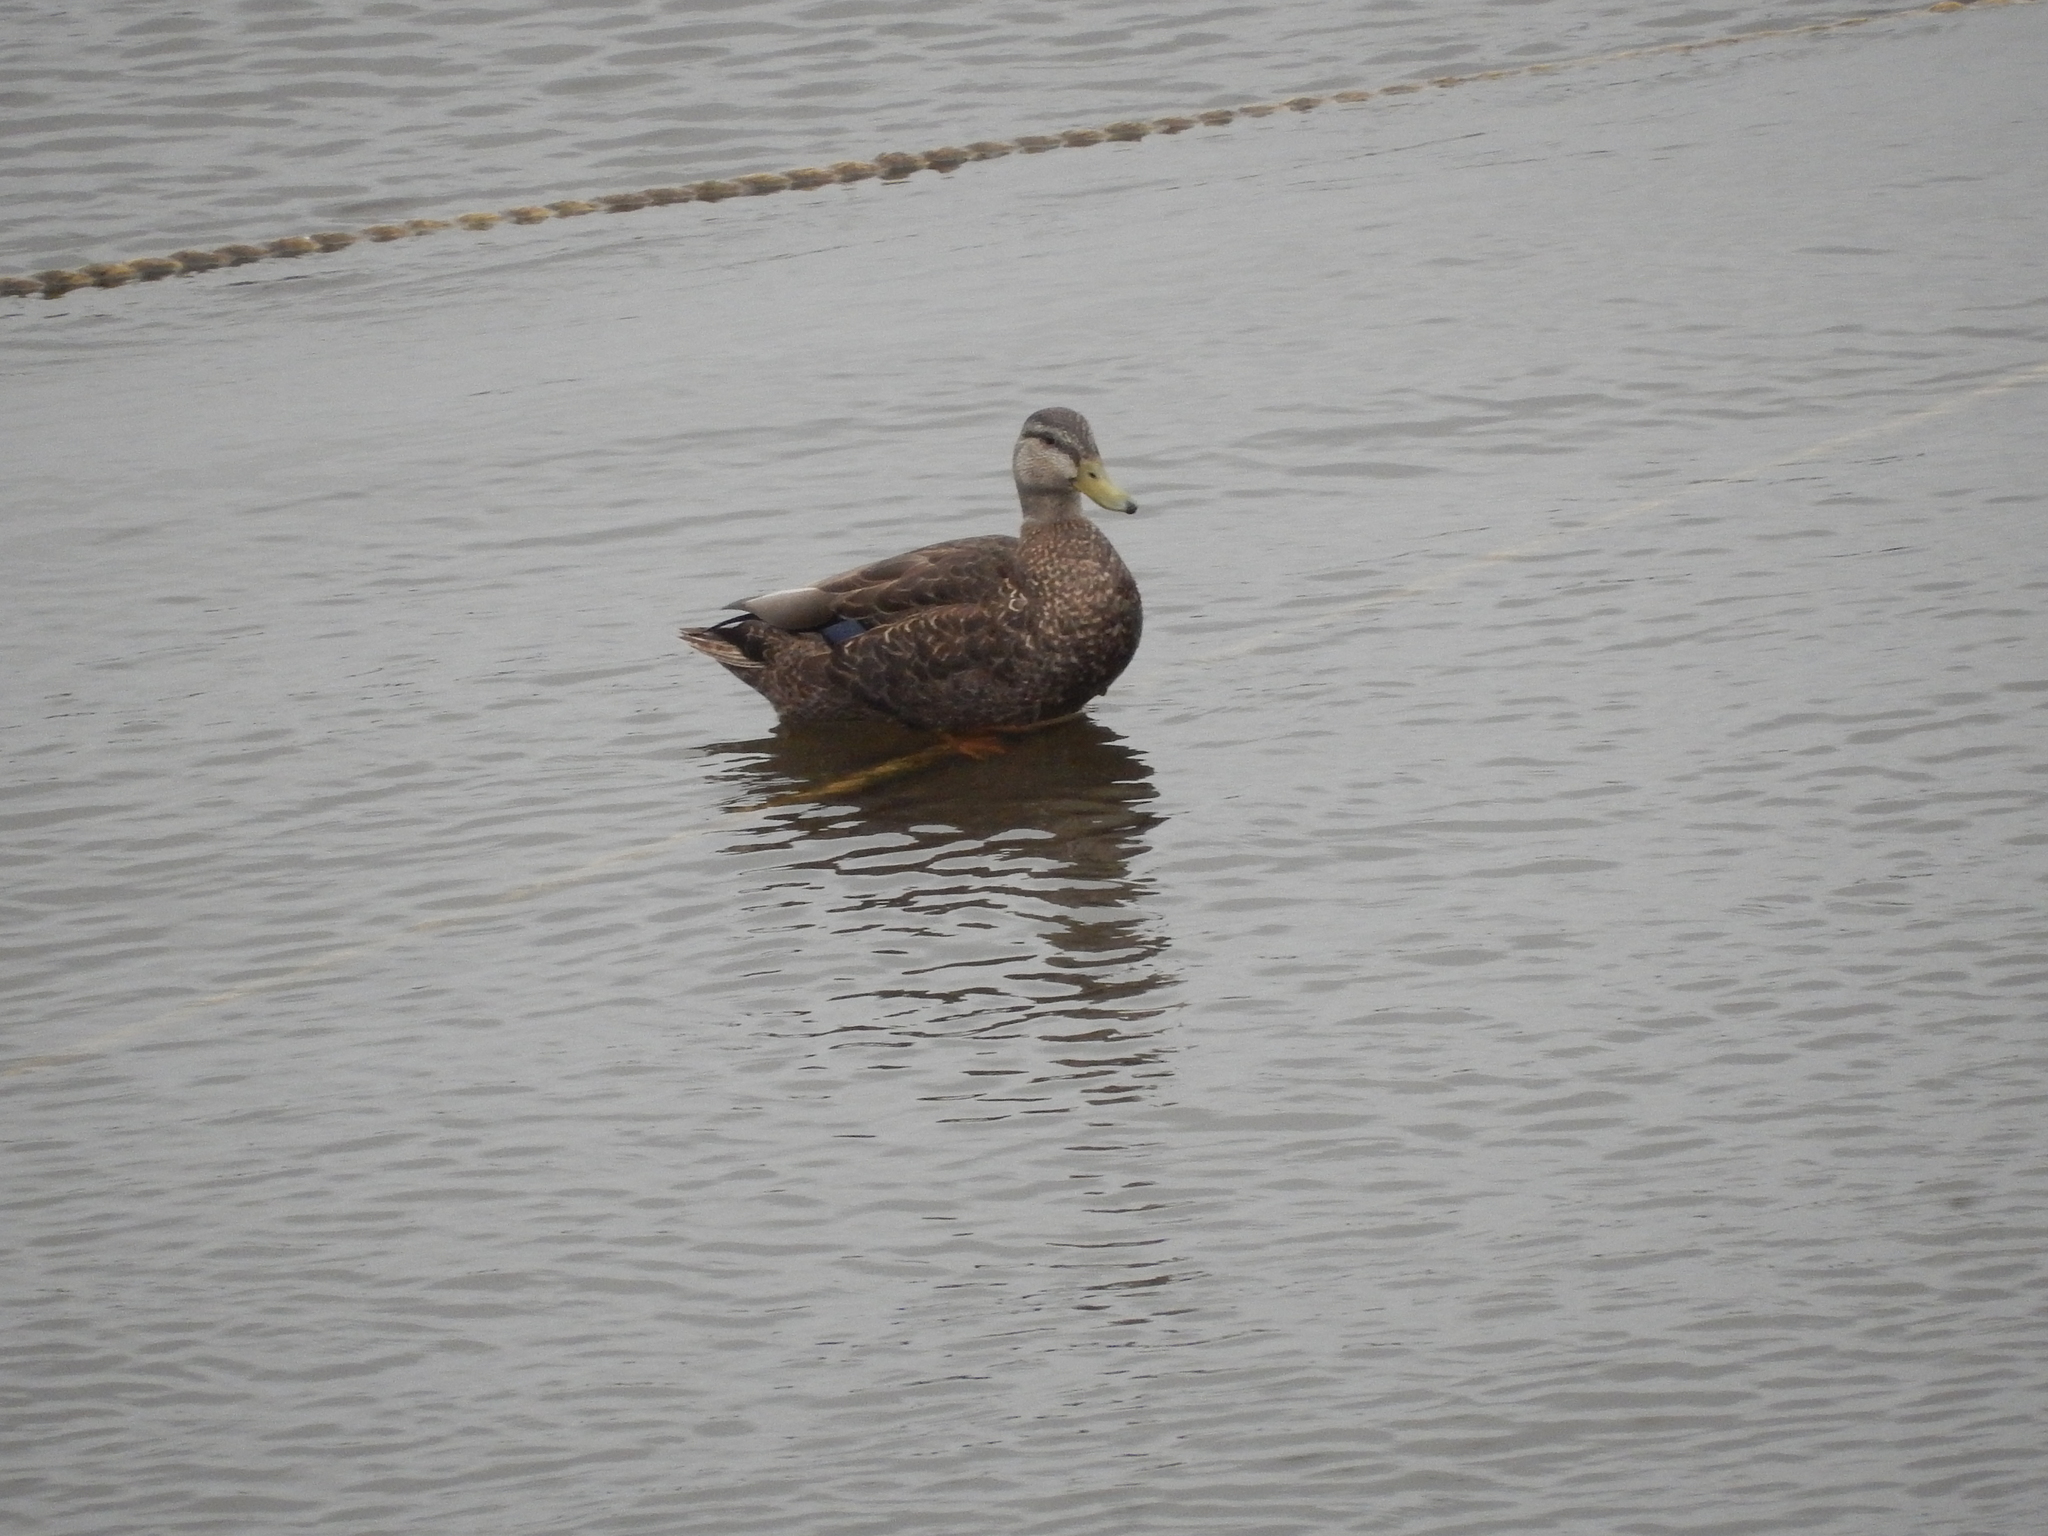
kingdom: Animalia
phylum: Chordata
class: Aves
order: Anseriformes
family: Anatidae
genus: Anas
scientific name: Anas rubripes
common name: American black duck
